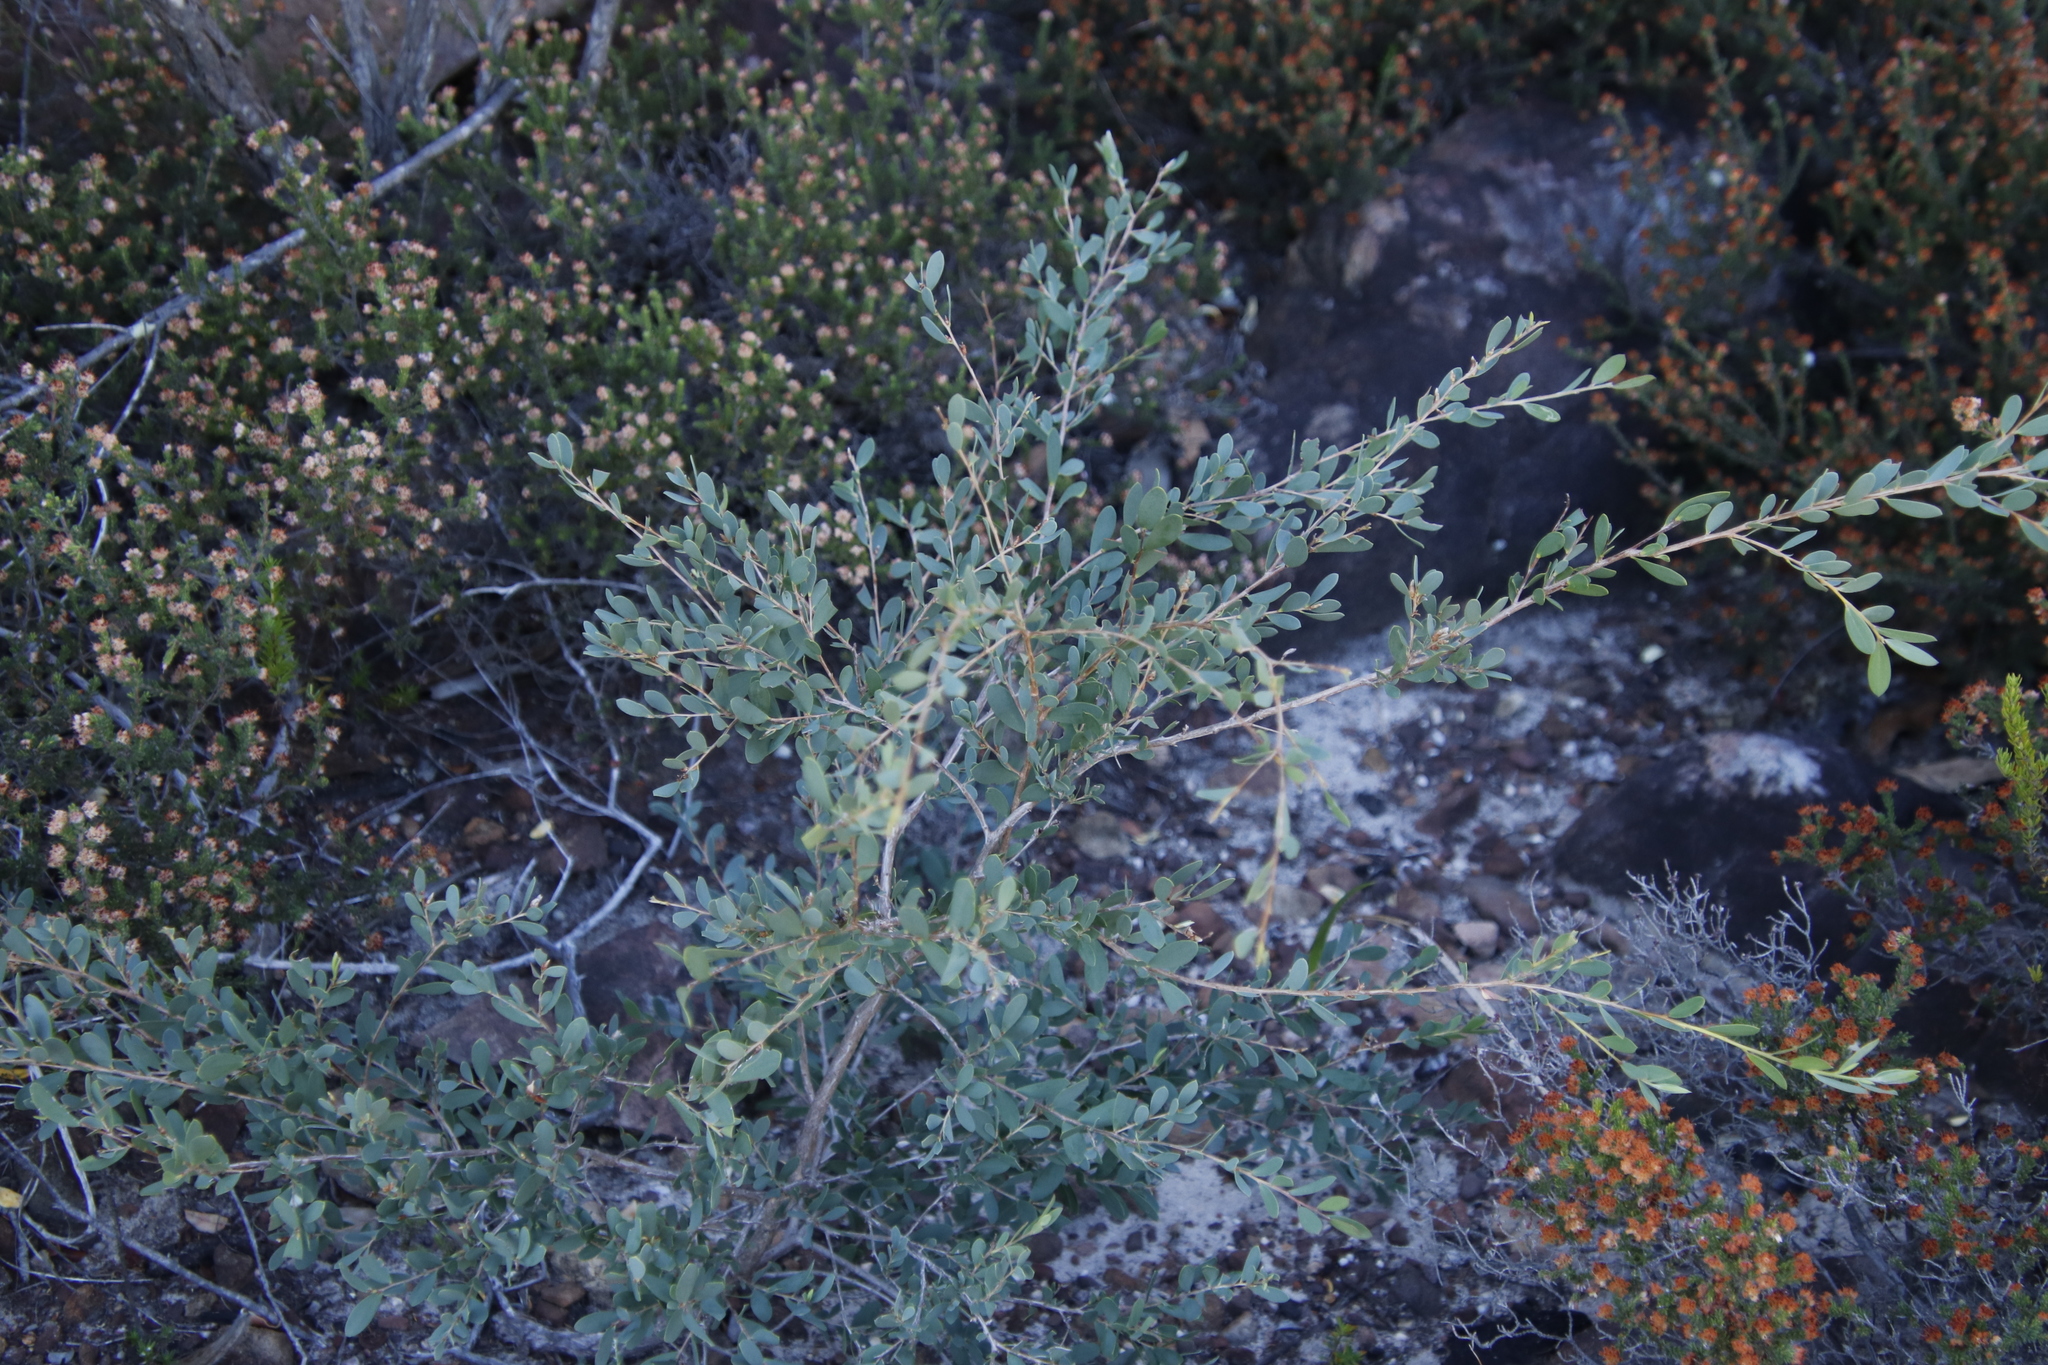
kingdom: Plantae
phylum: Tracheophyta
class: Magnoliopsida
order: Myrtales
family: Myrtaceae
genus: Leptospermum
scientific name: Leptospermum laevigatum
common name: Australian teatree
